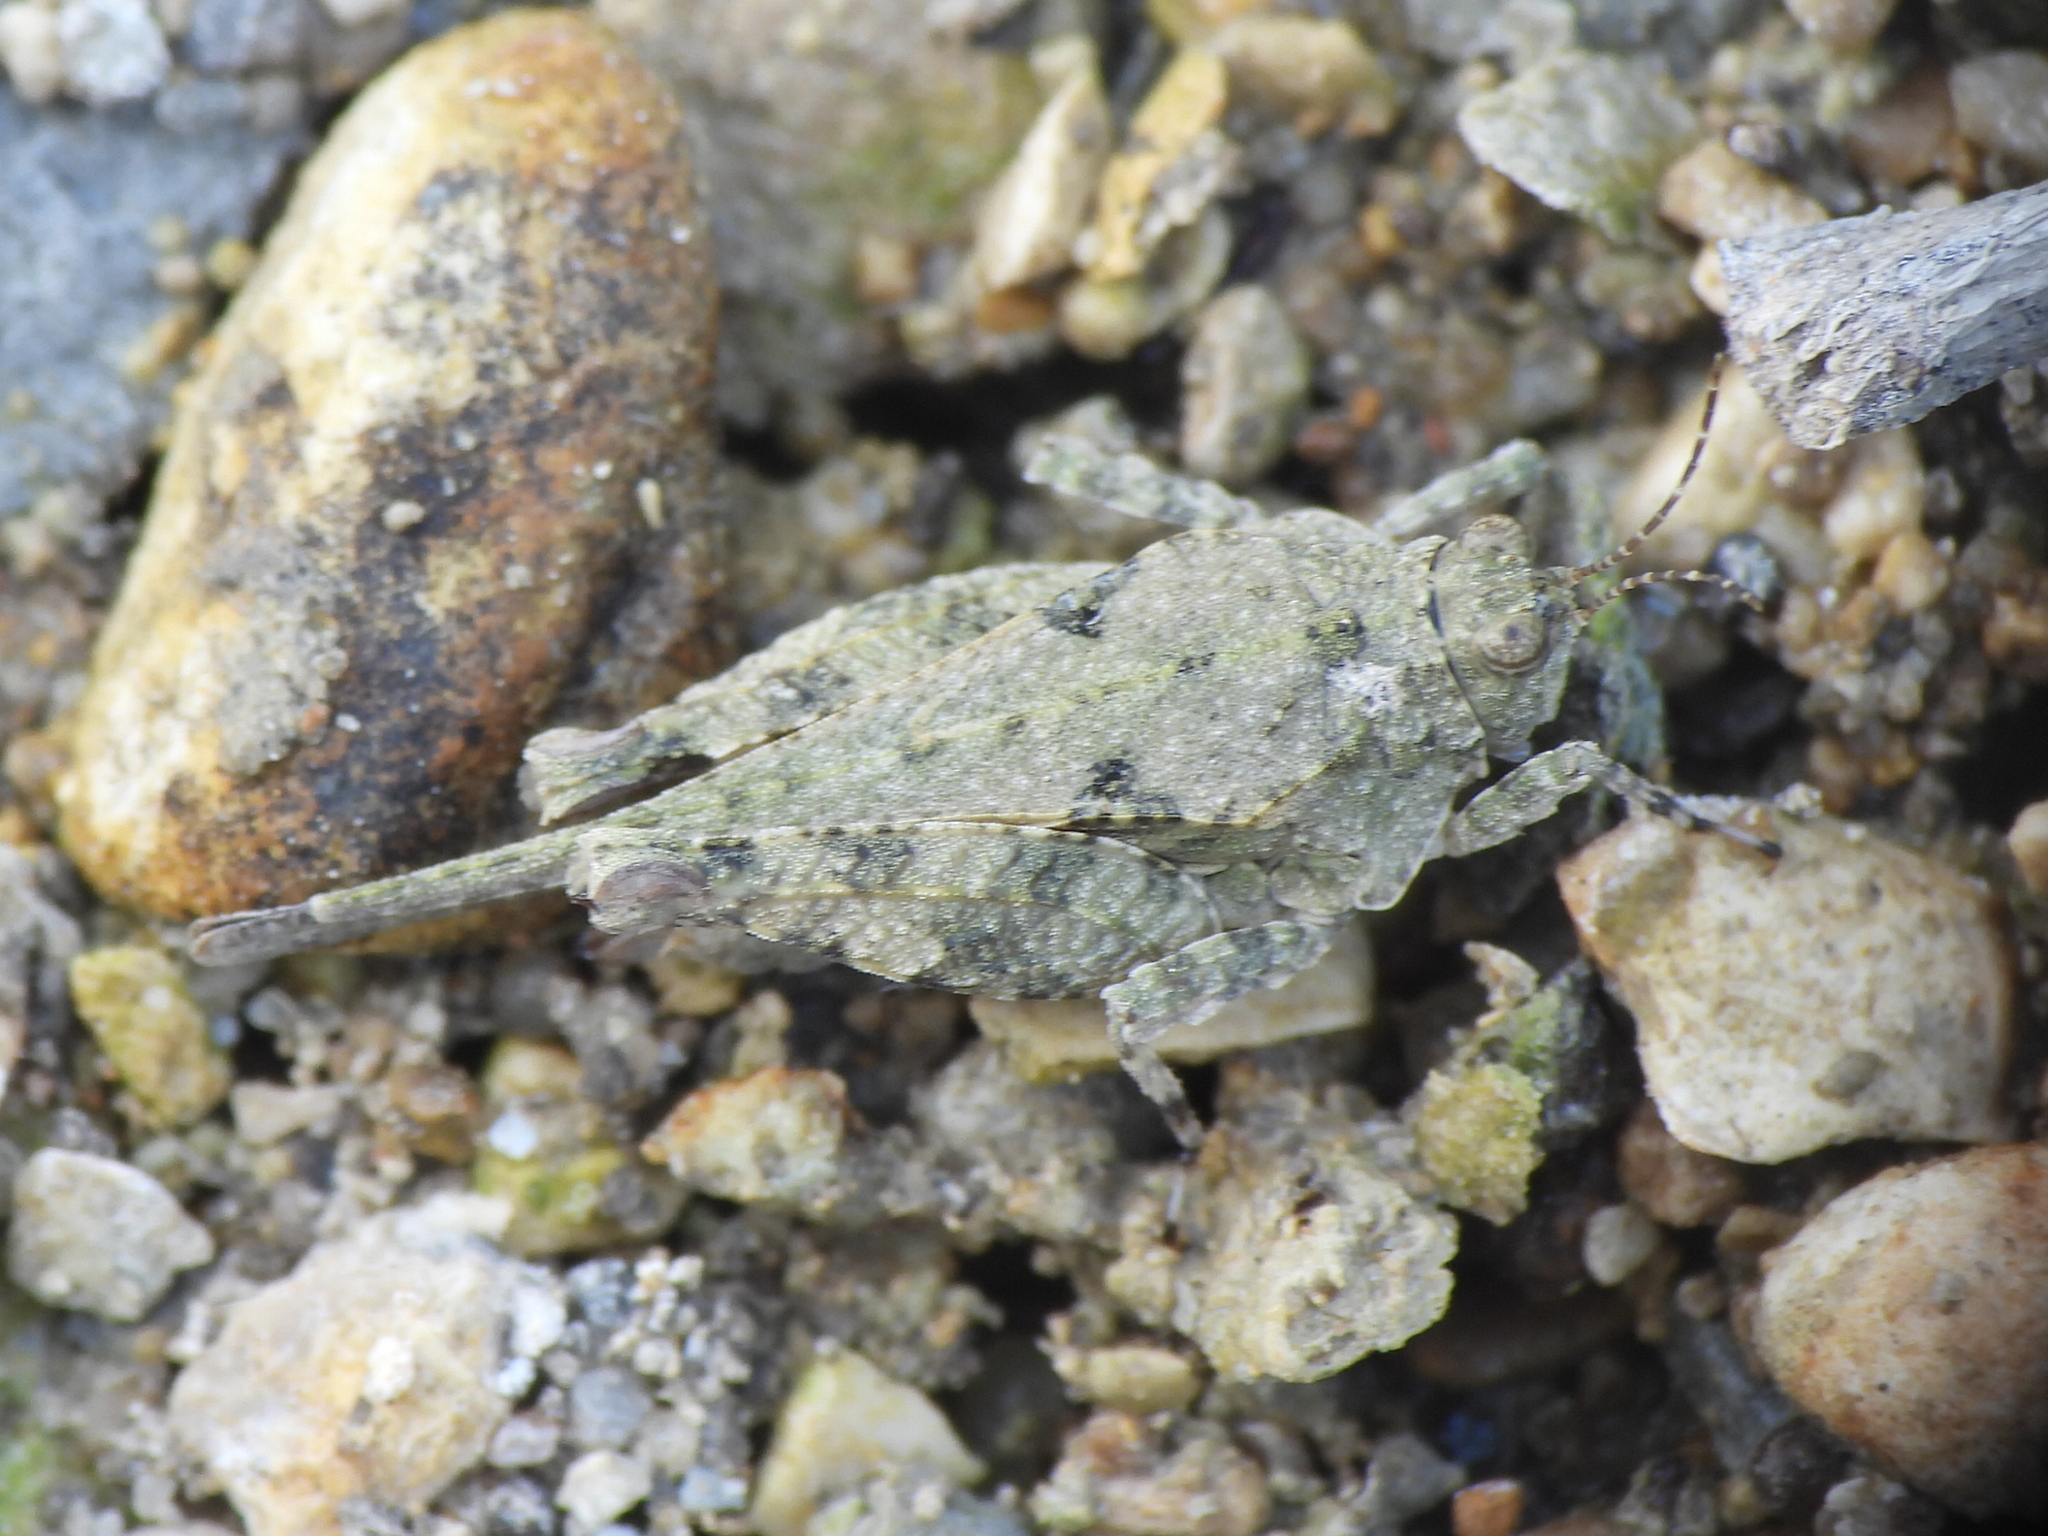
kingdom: Animalia
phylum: Arthropoda
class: Insecta
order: Orthoptera
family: Tetrigidae
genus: Paratettix
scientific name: Paratettix mexicanus
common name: Mexican pygmy grasshopper
